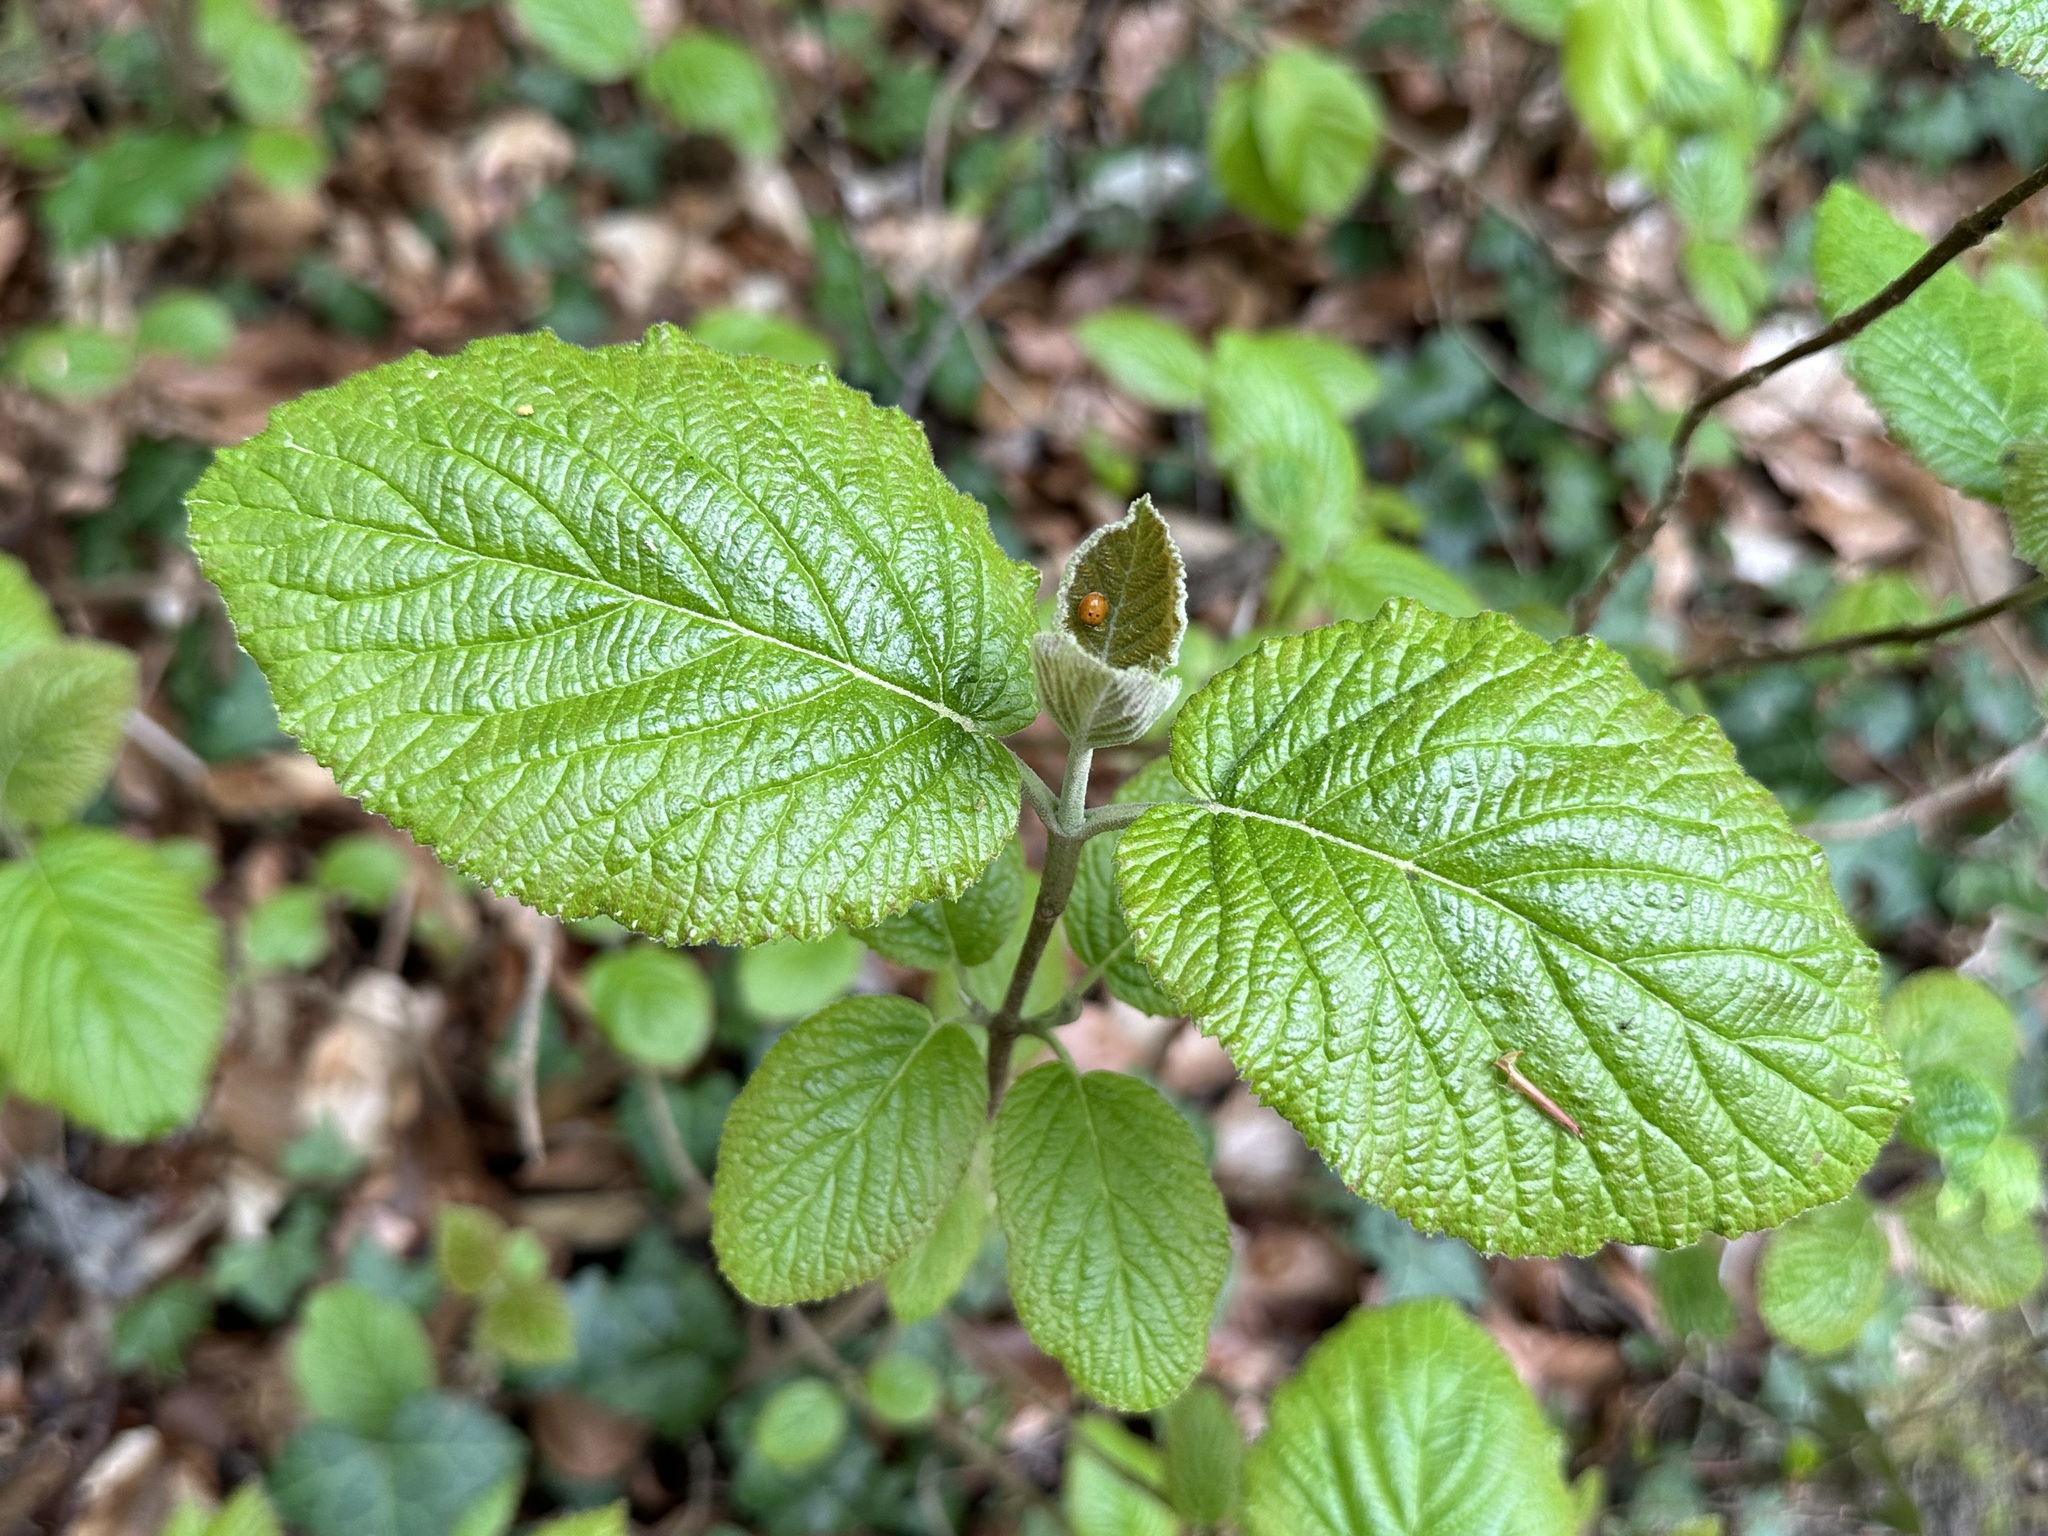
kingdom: Plantae
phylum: Tracheophyta
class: Magnoliopsida
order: Dipsacales
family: Viburnaceae
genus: Viburnum
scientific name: Viburnum lantana
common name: Wayfaring tree
